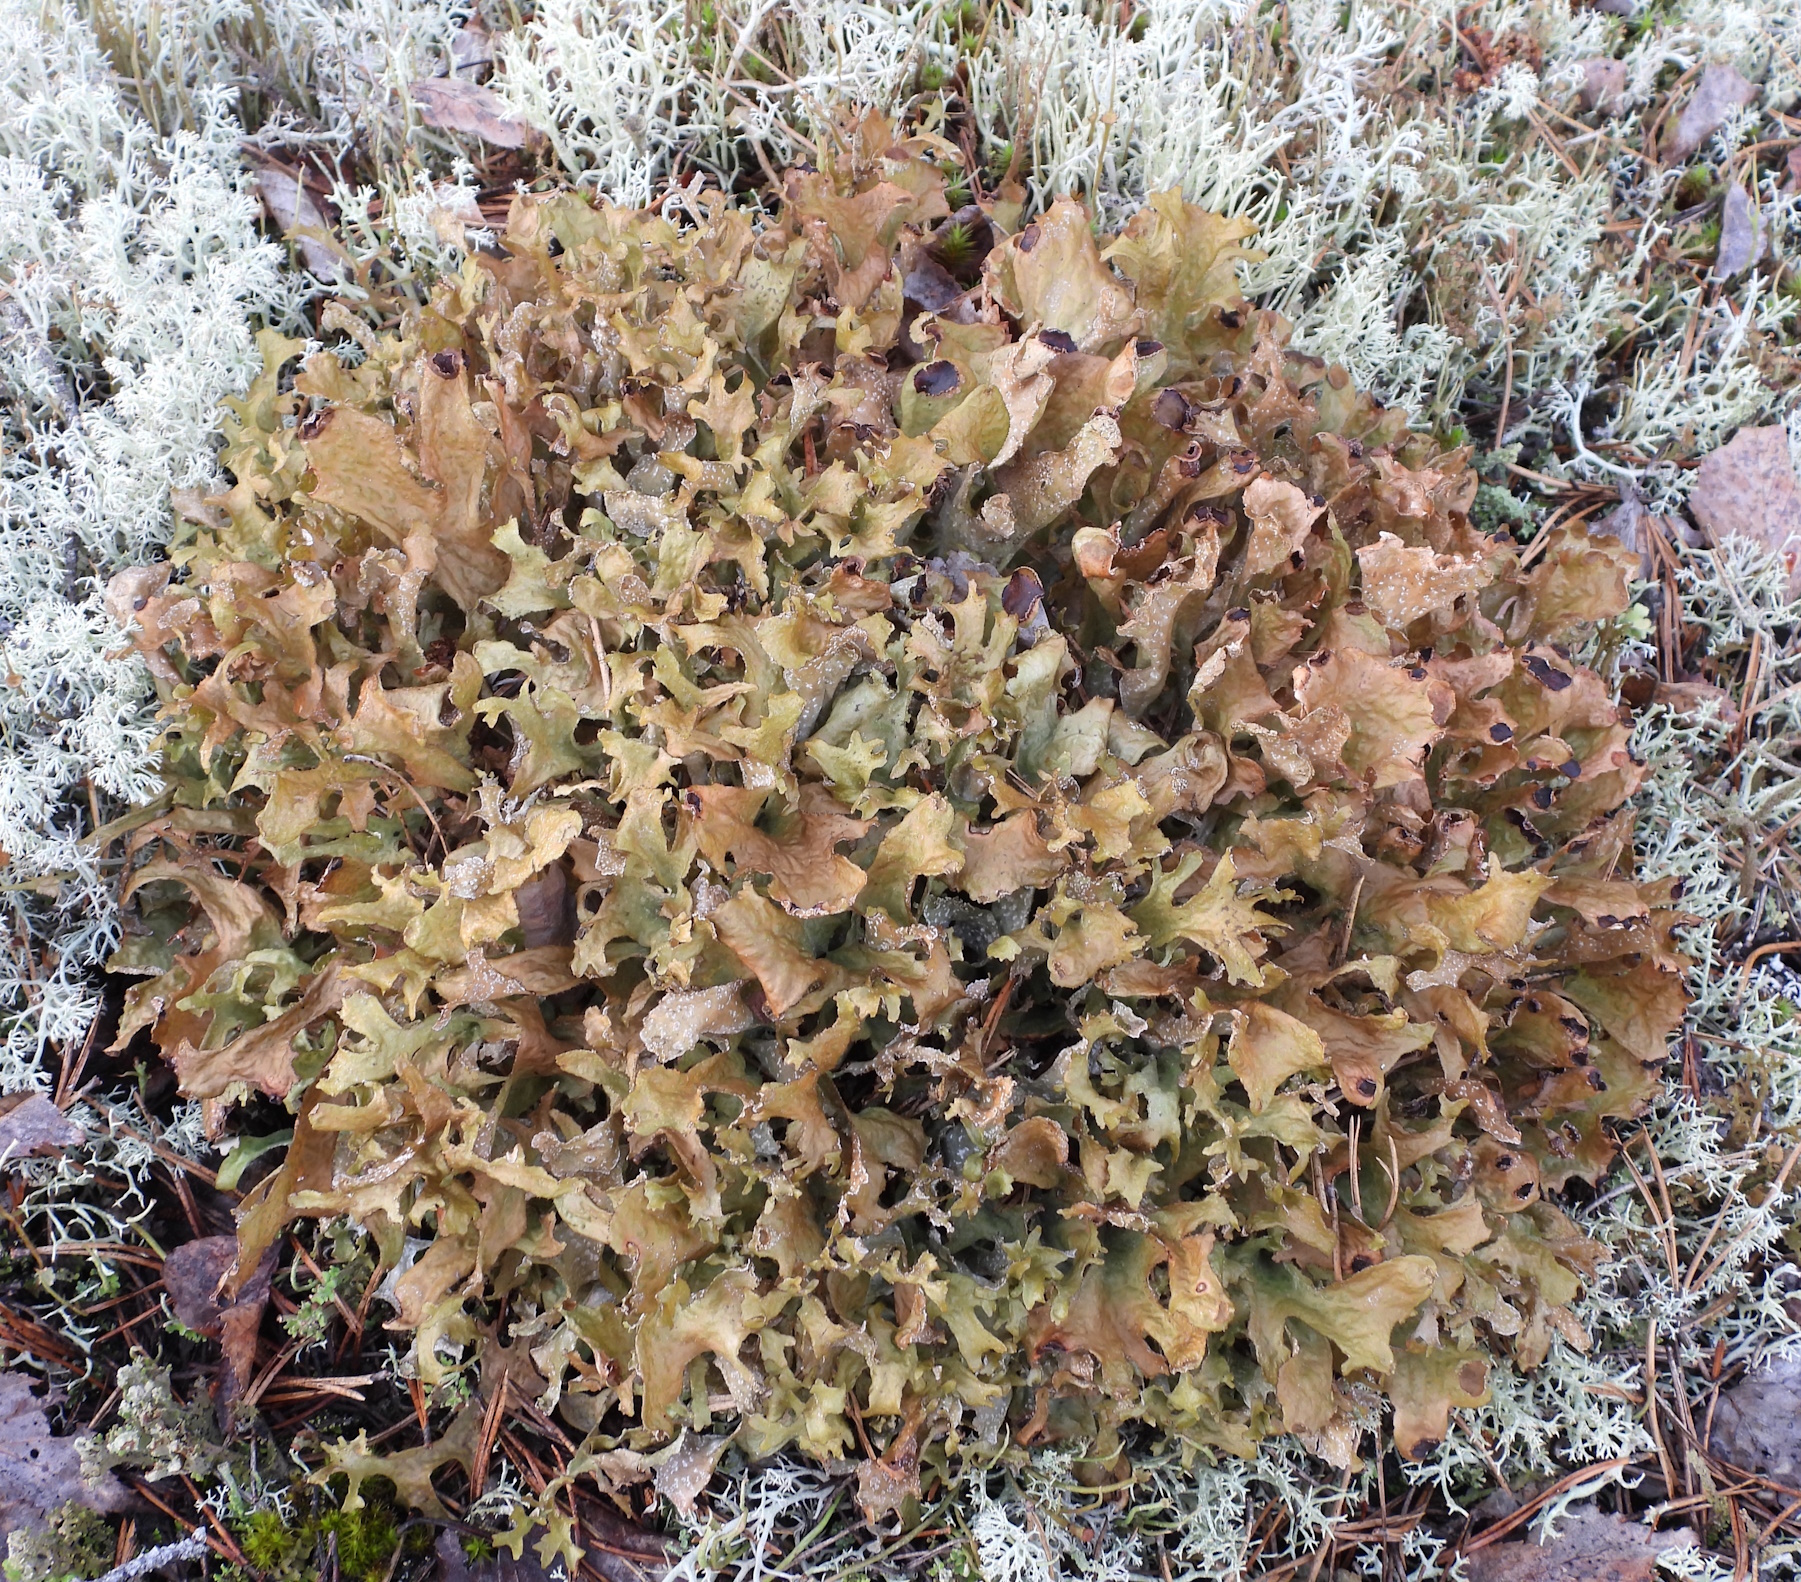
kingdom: Fungi
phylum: Ascomycota
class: Lecanoromycetes
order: Lecanorales
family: Parmeliaceae
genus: Cetraria
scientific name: Cetraria islandica
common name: Iceland lichen
